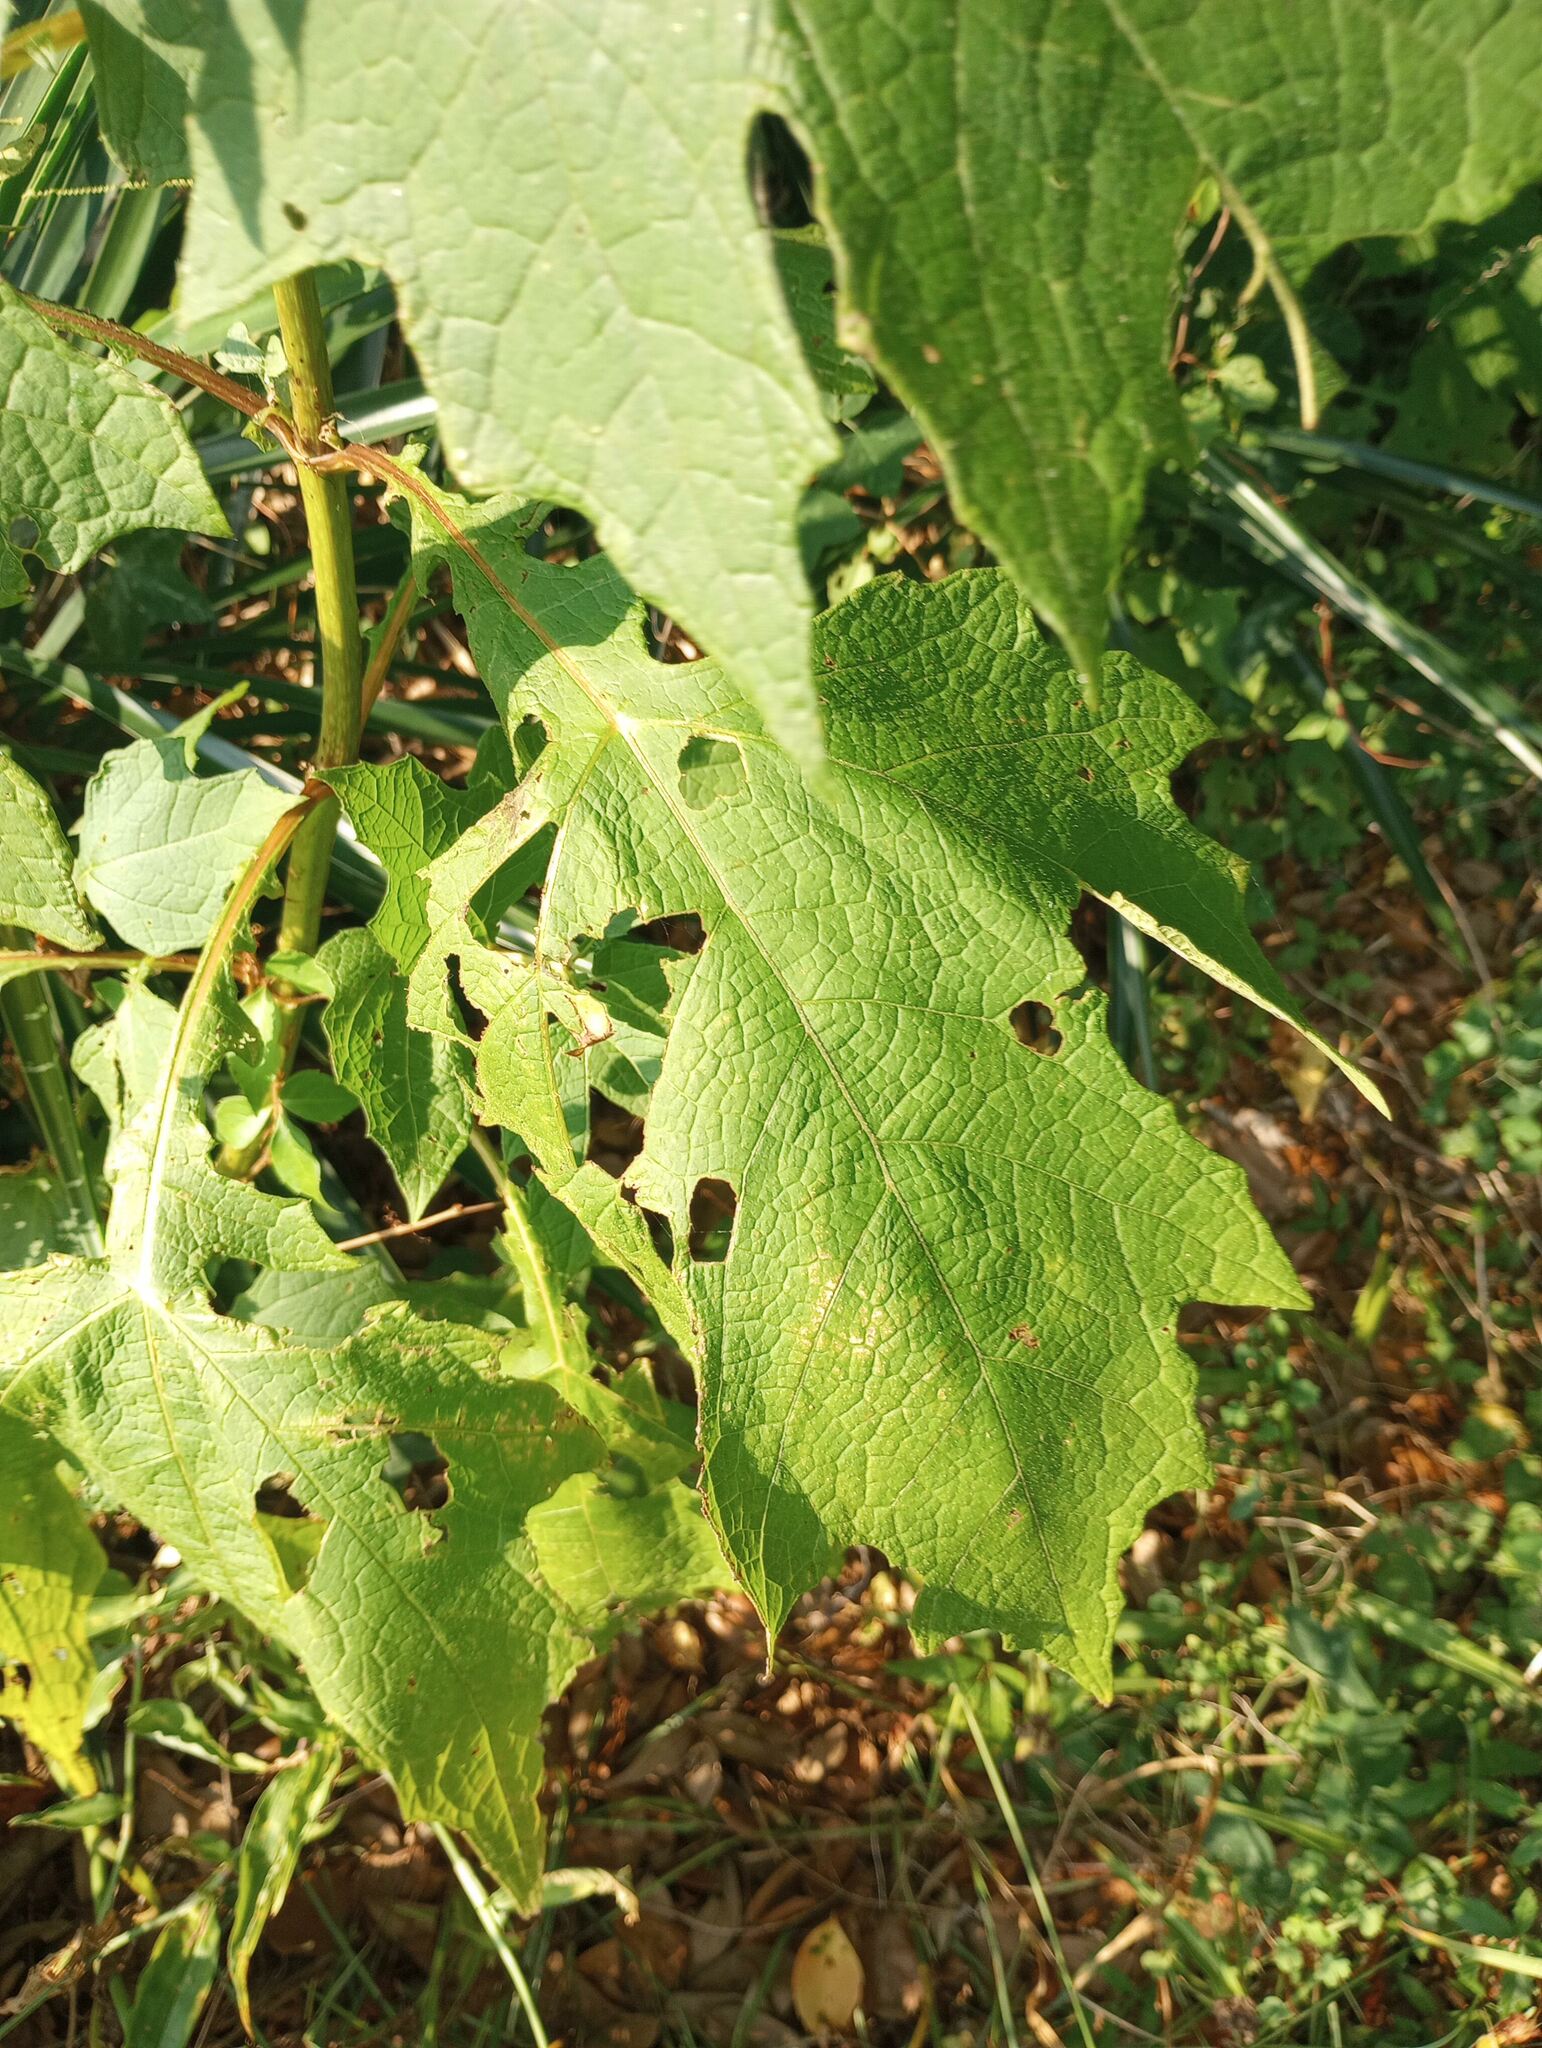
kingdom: Plantae
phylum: Tracheophyta
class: Magnoliopsida
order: Asterales
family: Asteraceae
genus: Smallanthus
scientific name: Smallanthus uvedalia
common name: Bear's-foot
